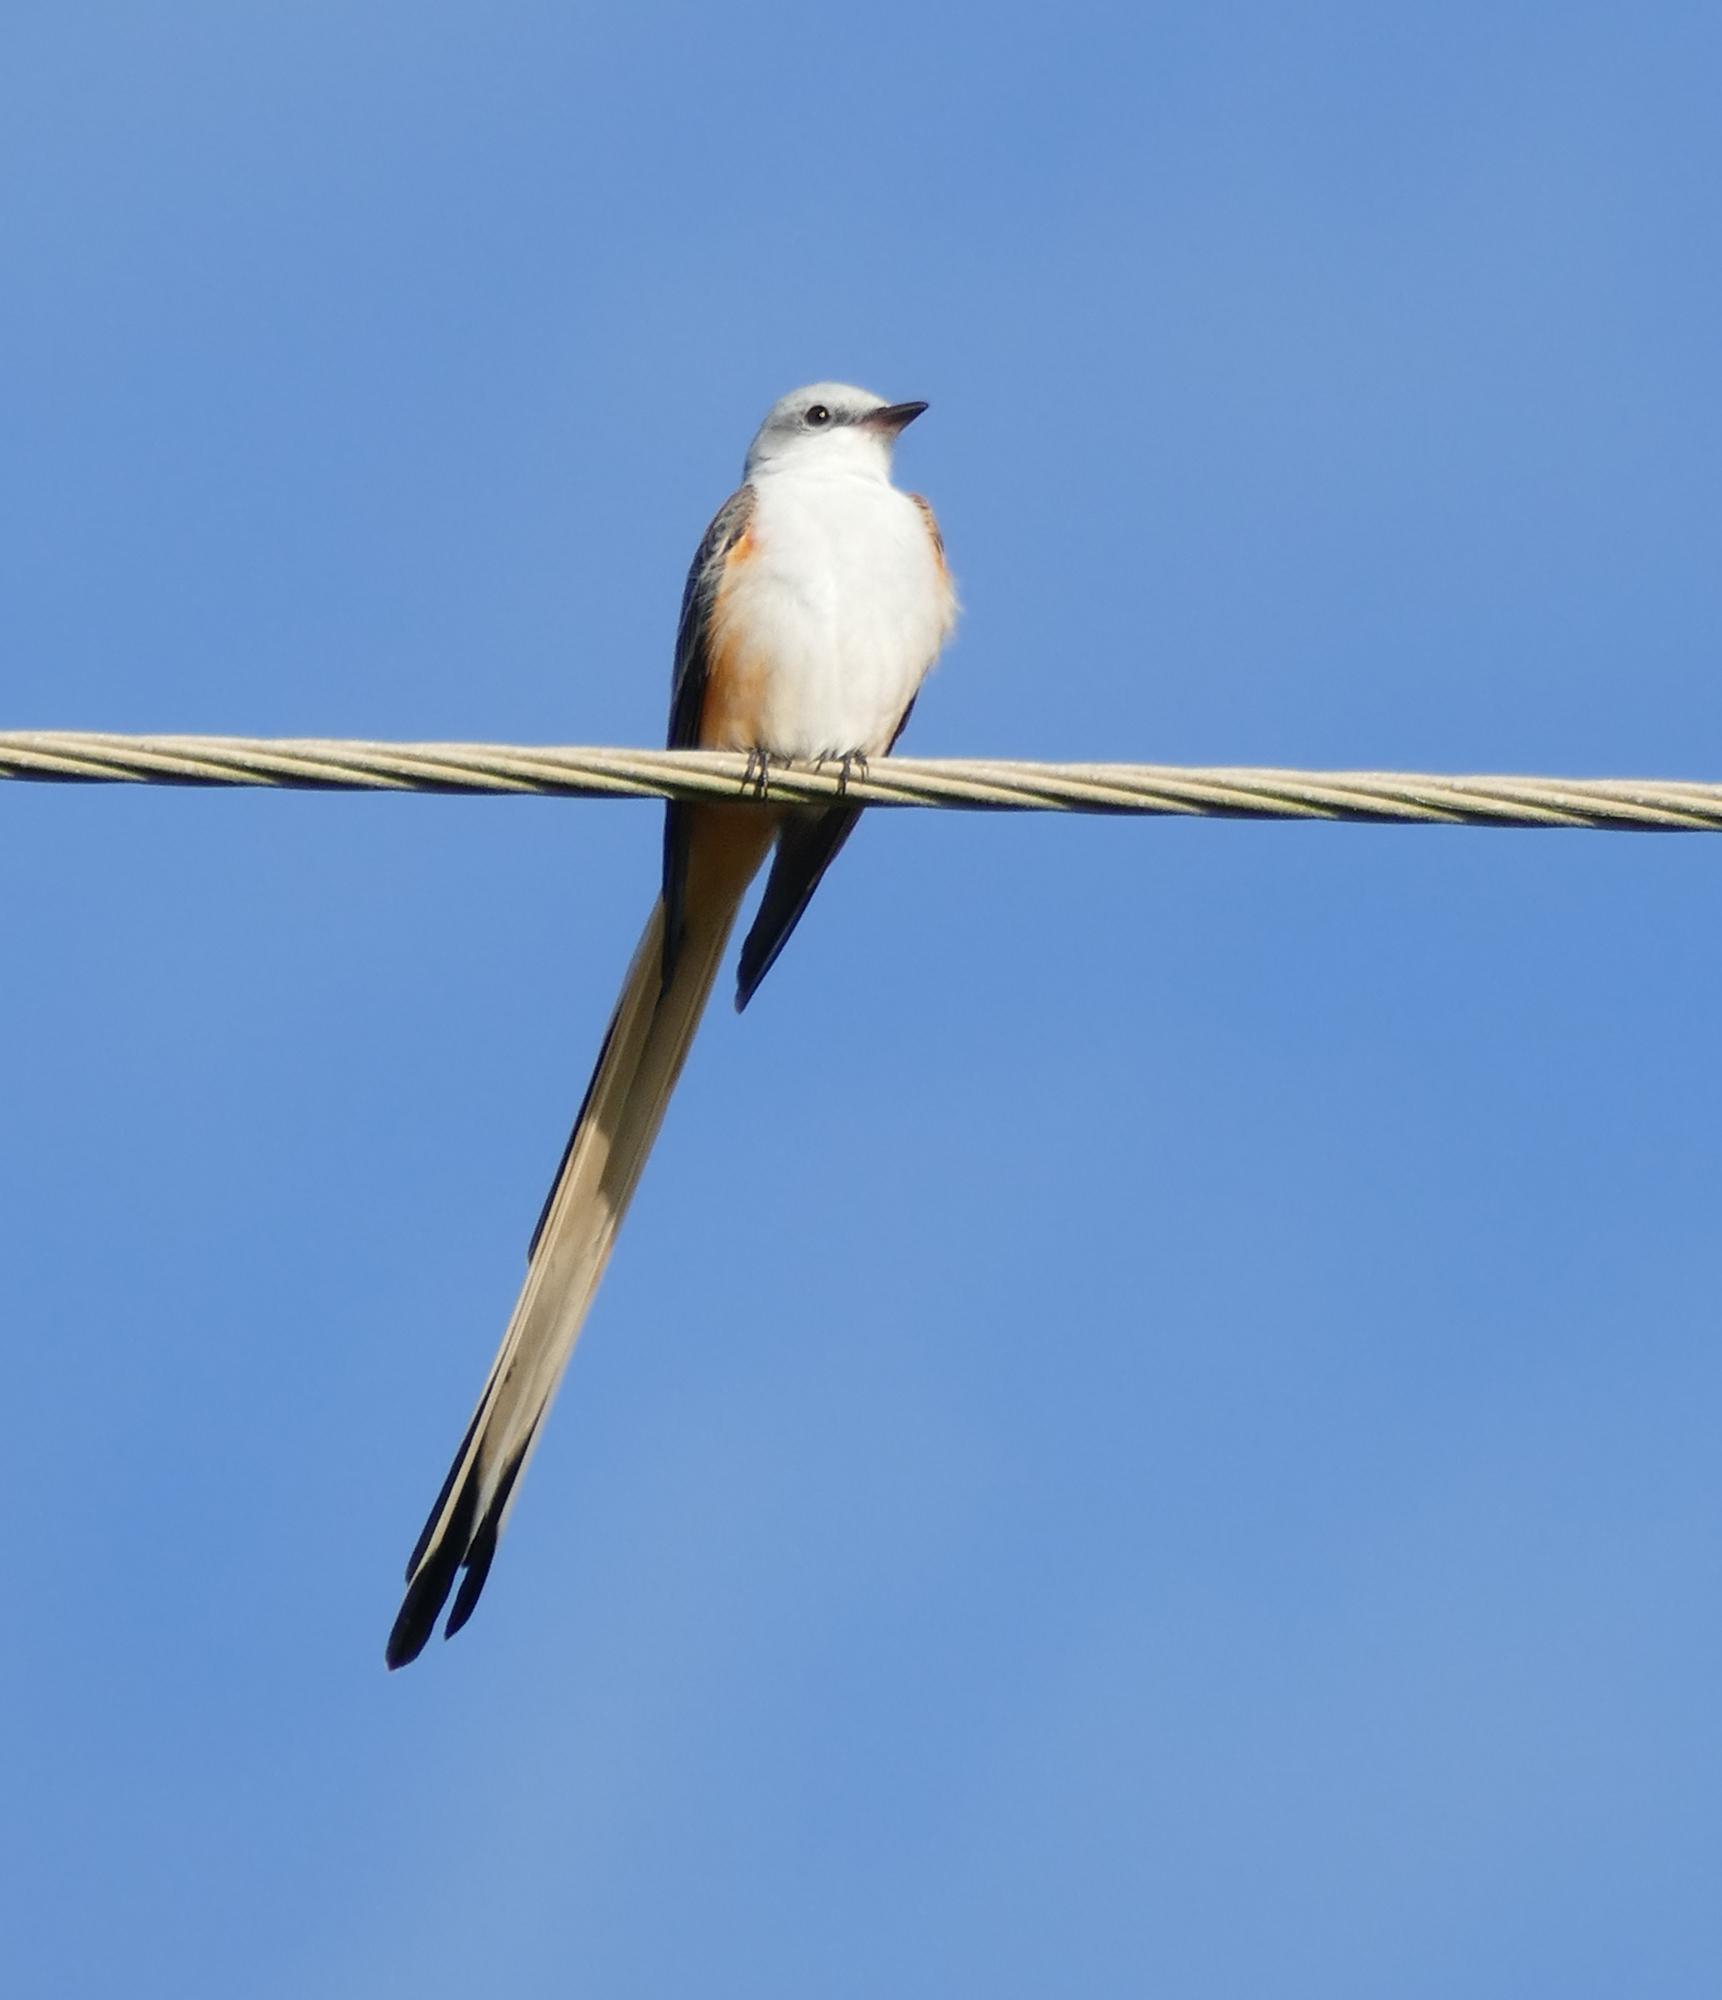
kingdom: Animalia
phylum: Chordata
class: Aves
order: Passeriformes
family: Tyrannidae
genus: Tyrannus
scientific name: Tyrannus forficatus
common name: Scissor-tailed flycatcher
